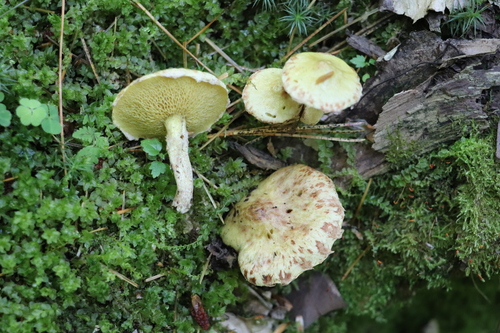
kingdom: Fungi
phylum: Basidiomycota
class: Agaricomycetes
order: Boletales
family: Suillaceae
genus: Suillus
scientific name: Suillus americanus
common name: Chicken fat mushroom
